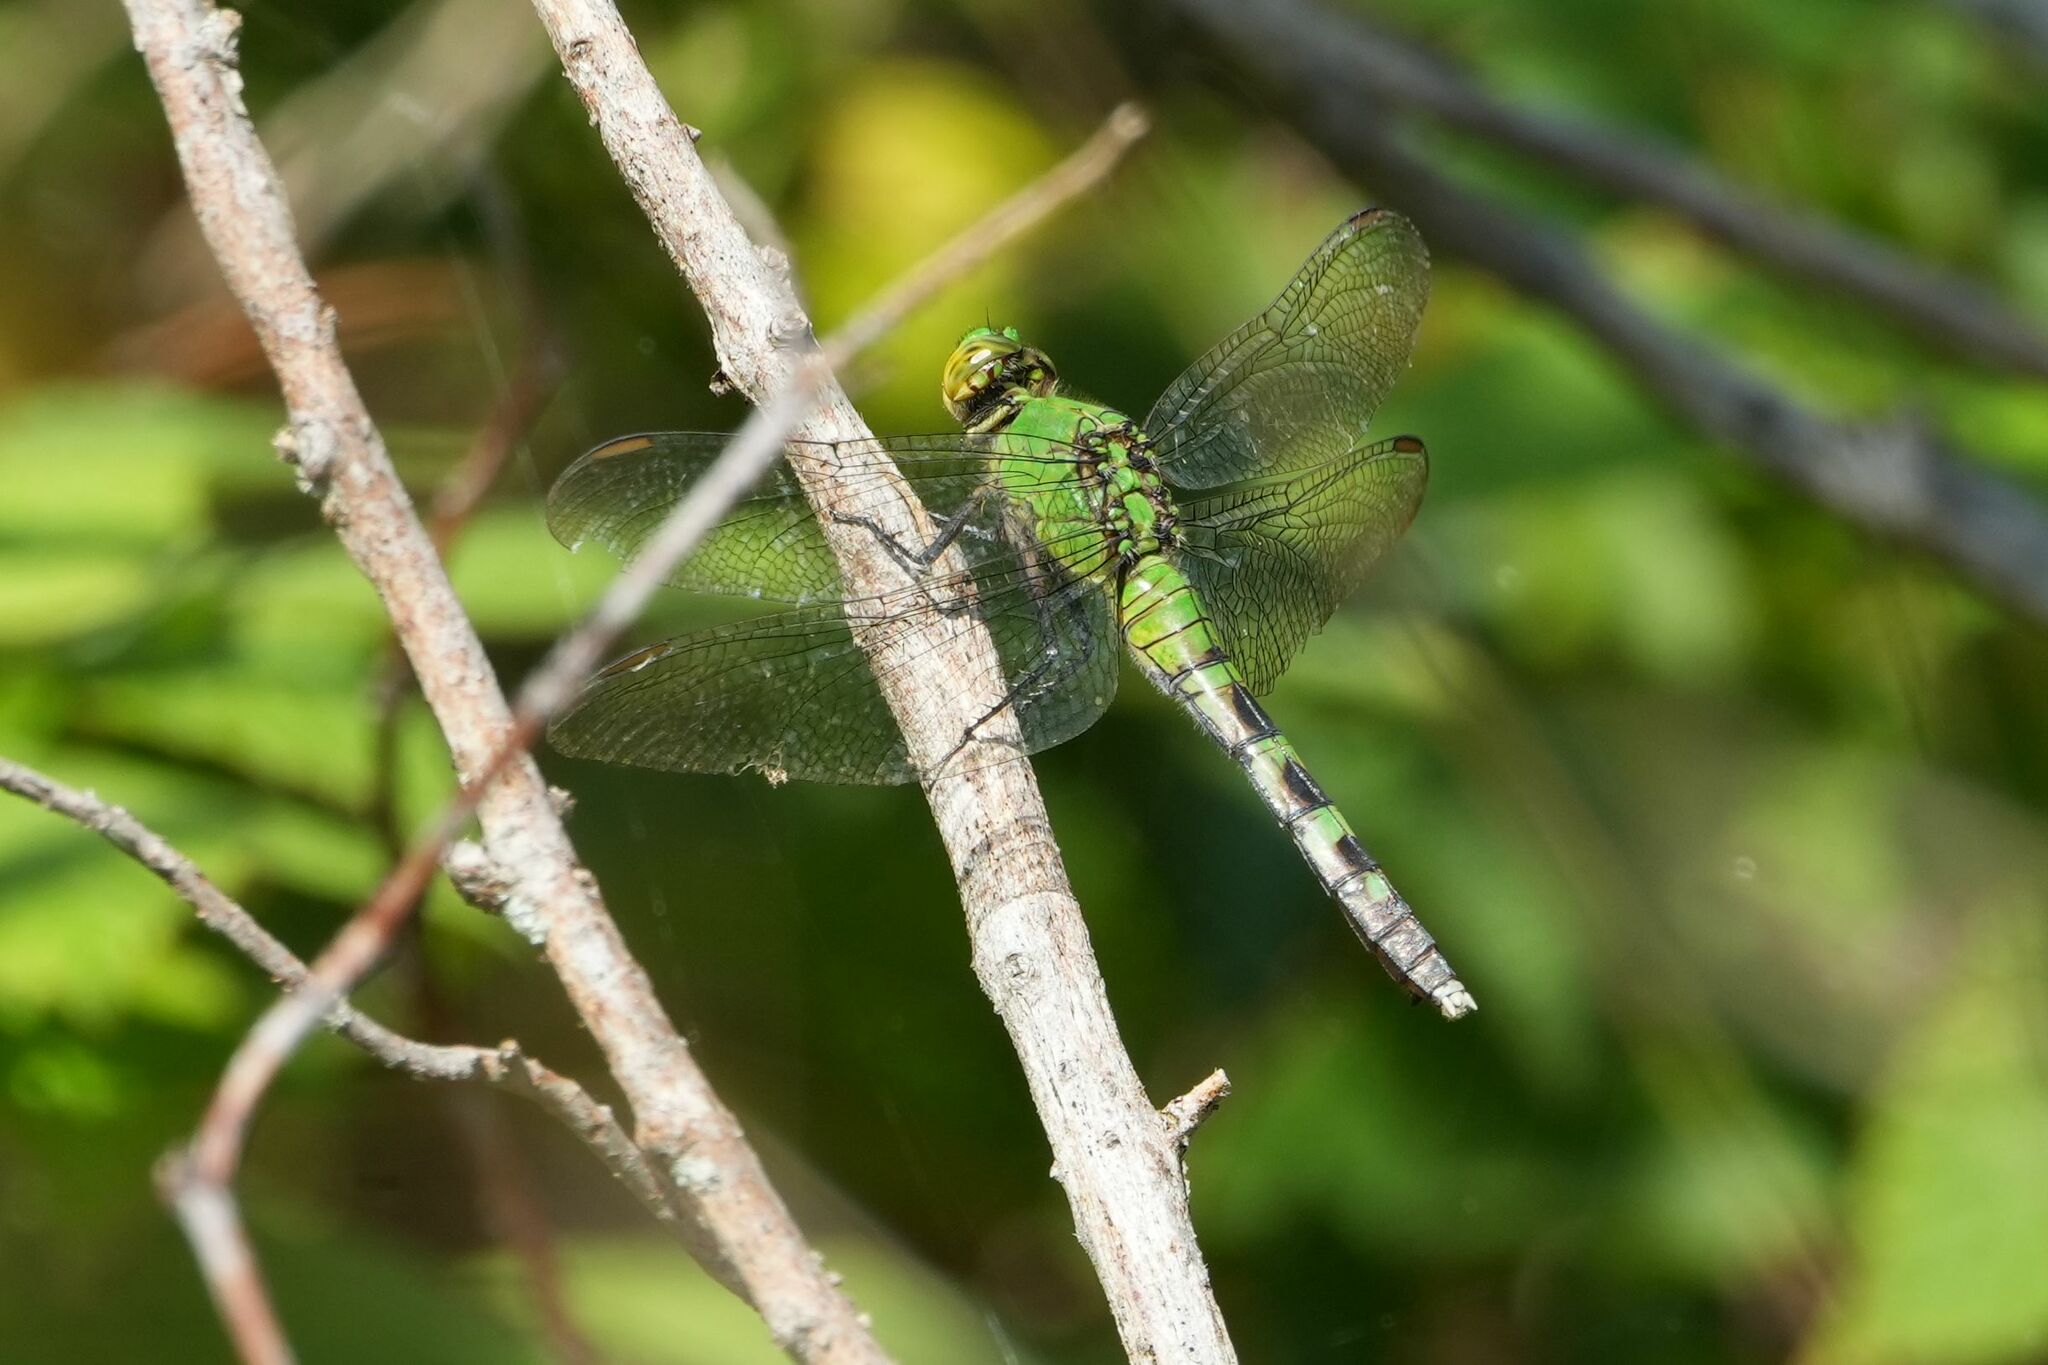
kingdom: Animalia
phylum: Arthropoda
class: Insecta
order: Odonata
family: Libellulidae
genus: Erythemis
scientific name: Erythemis simplicicollis
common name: Eastern pondhawk
